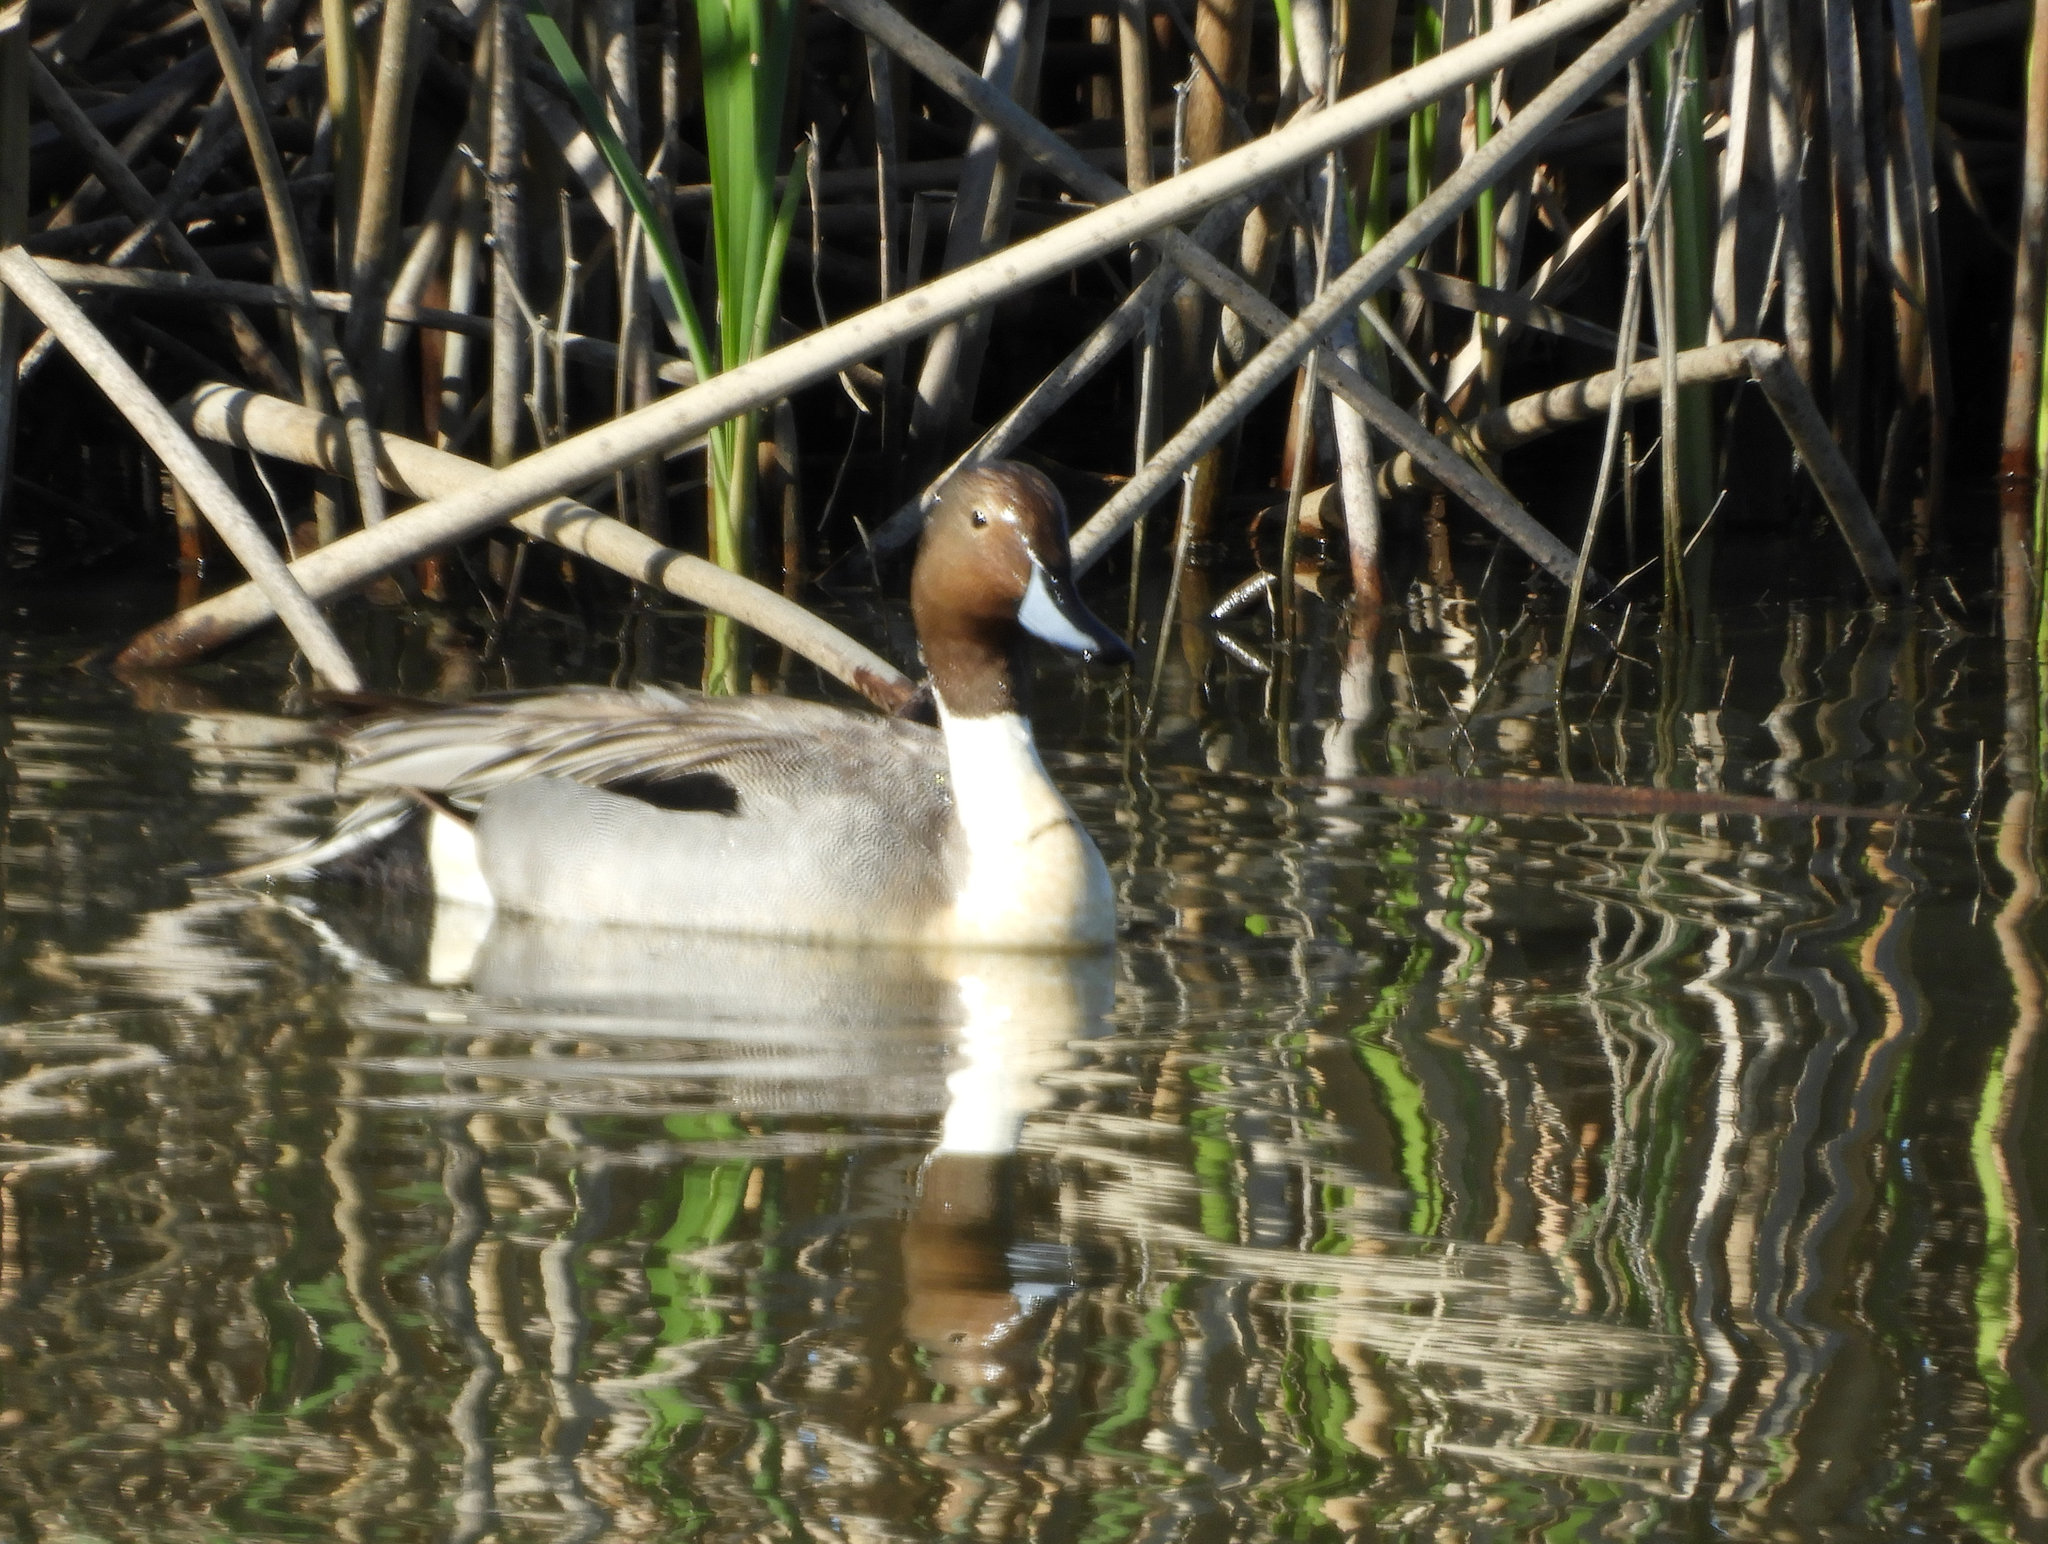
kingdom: Animalia
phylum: Chordata
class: Aves
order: Anseriformes
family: Anatidae
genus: Anas
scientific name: Anas acuta
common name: Northern pintail
